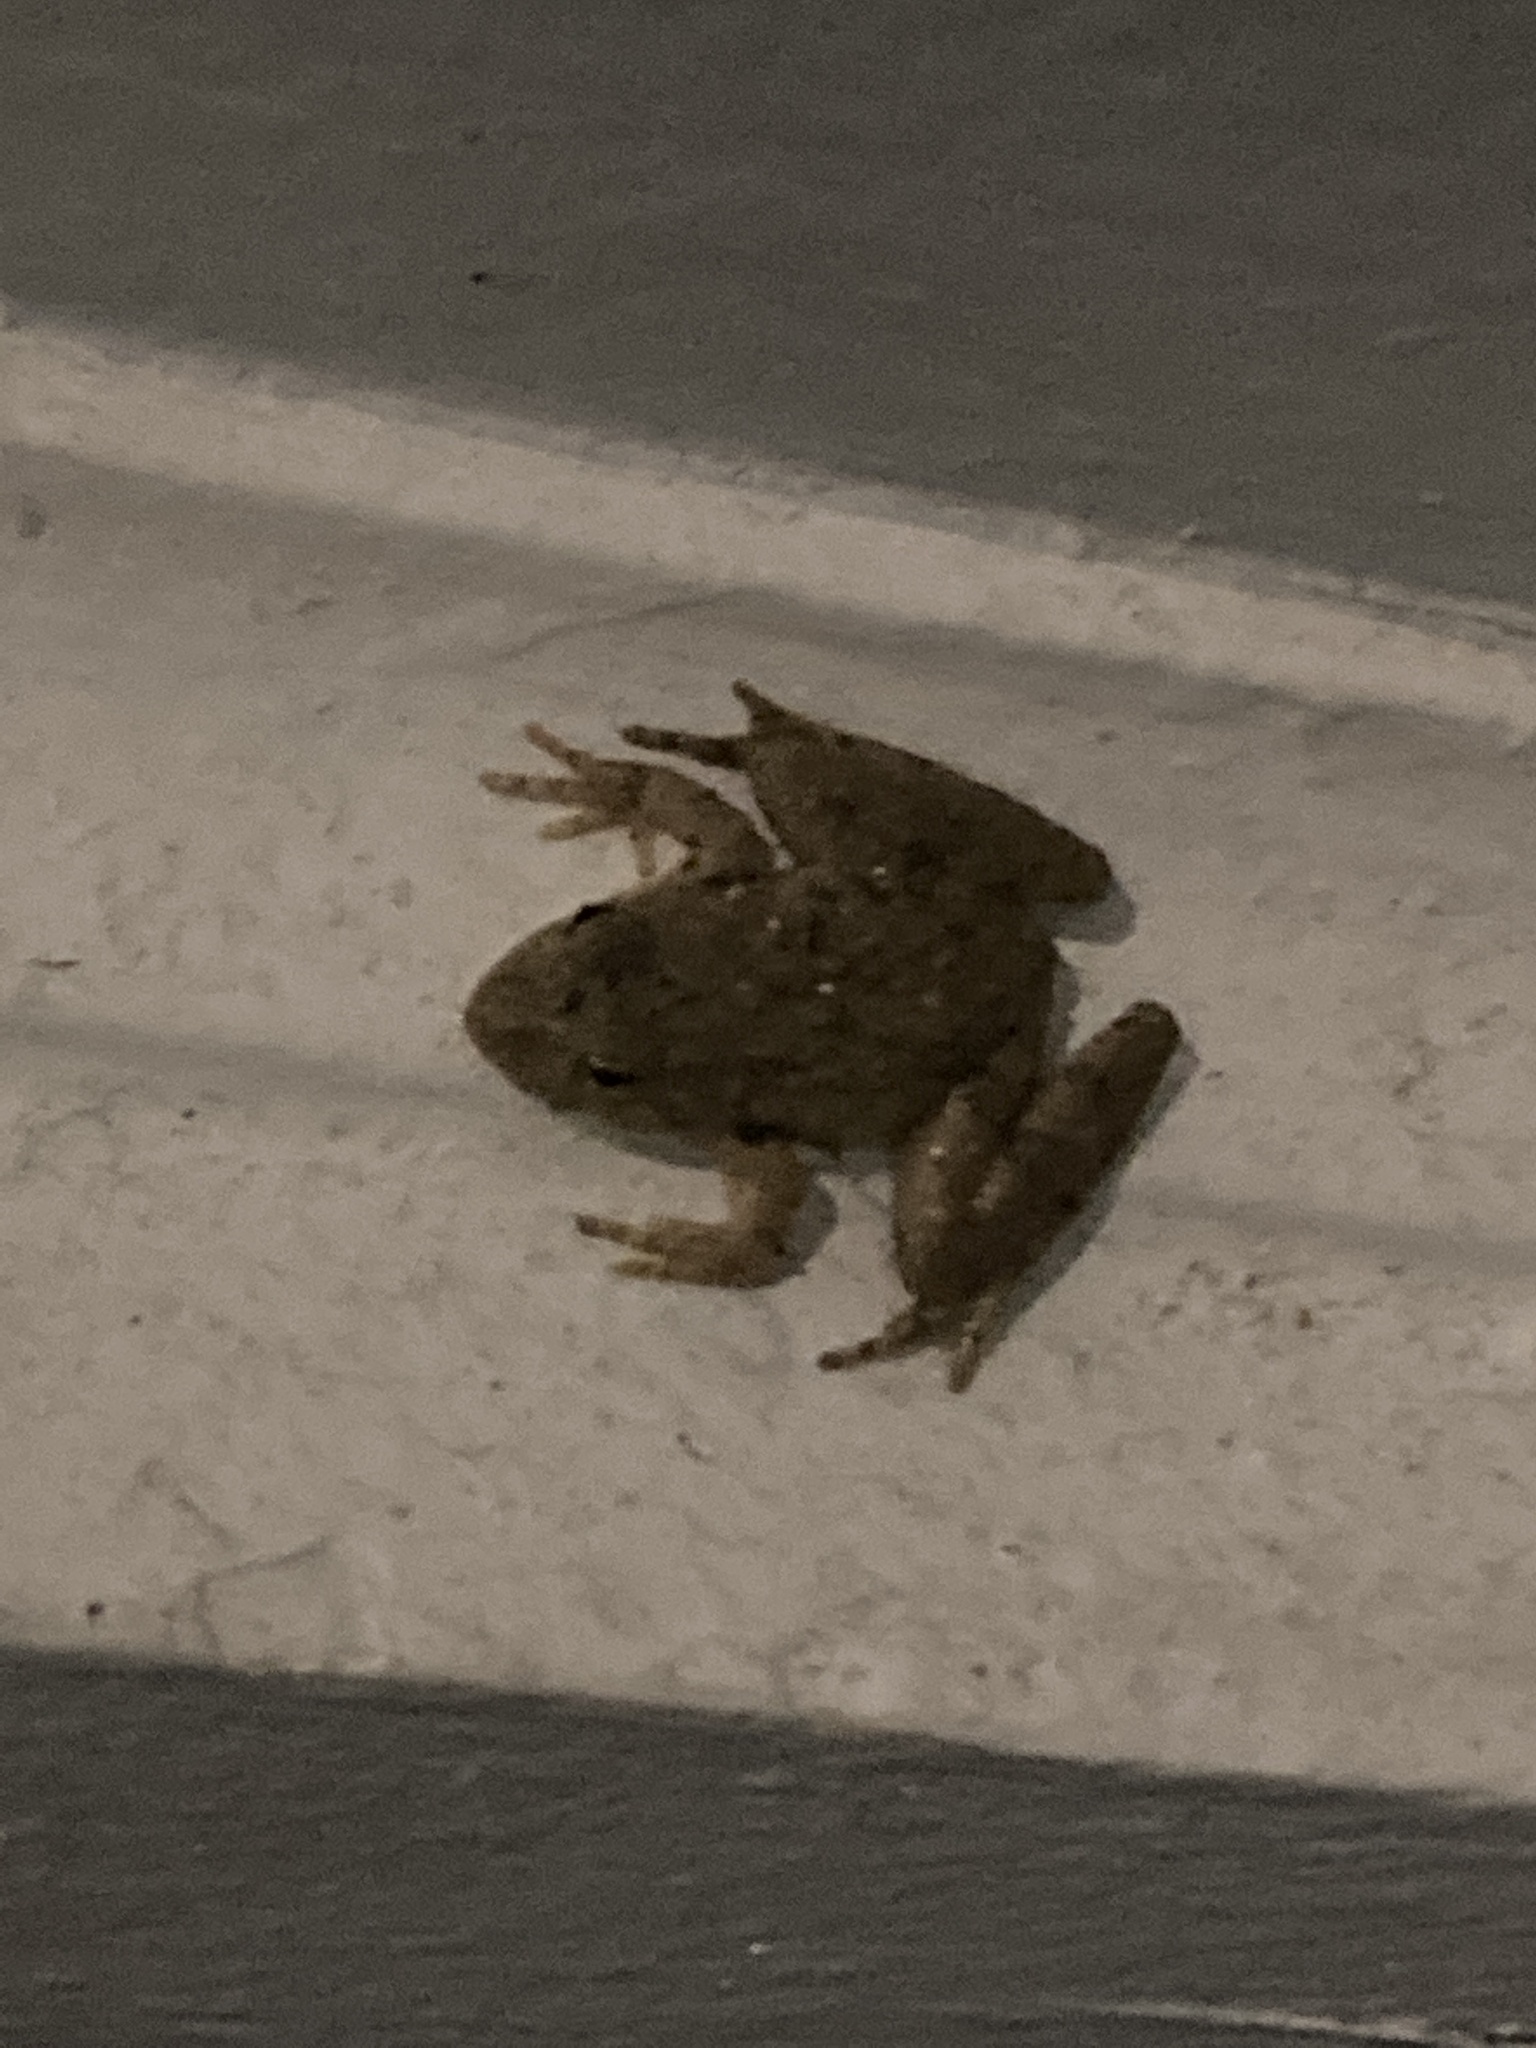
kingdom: Animalia
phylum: Chordata
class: Amphibia
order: Anura
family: Hylidae
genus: Acris
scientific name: Acris blanchardi
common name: Blanchard's cricket frog
